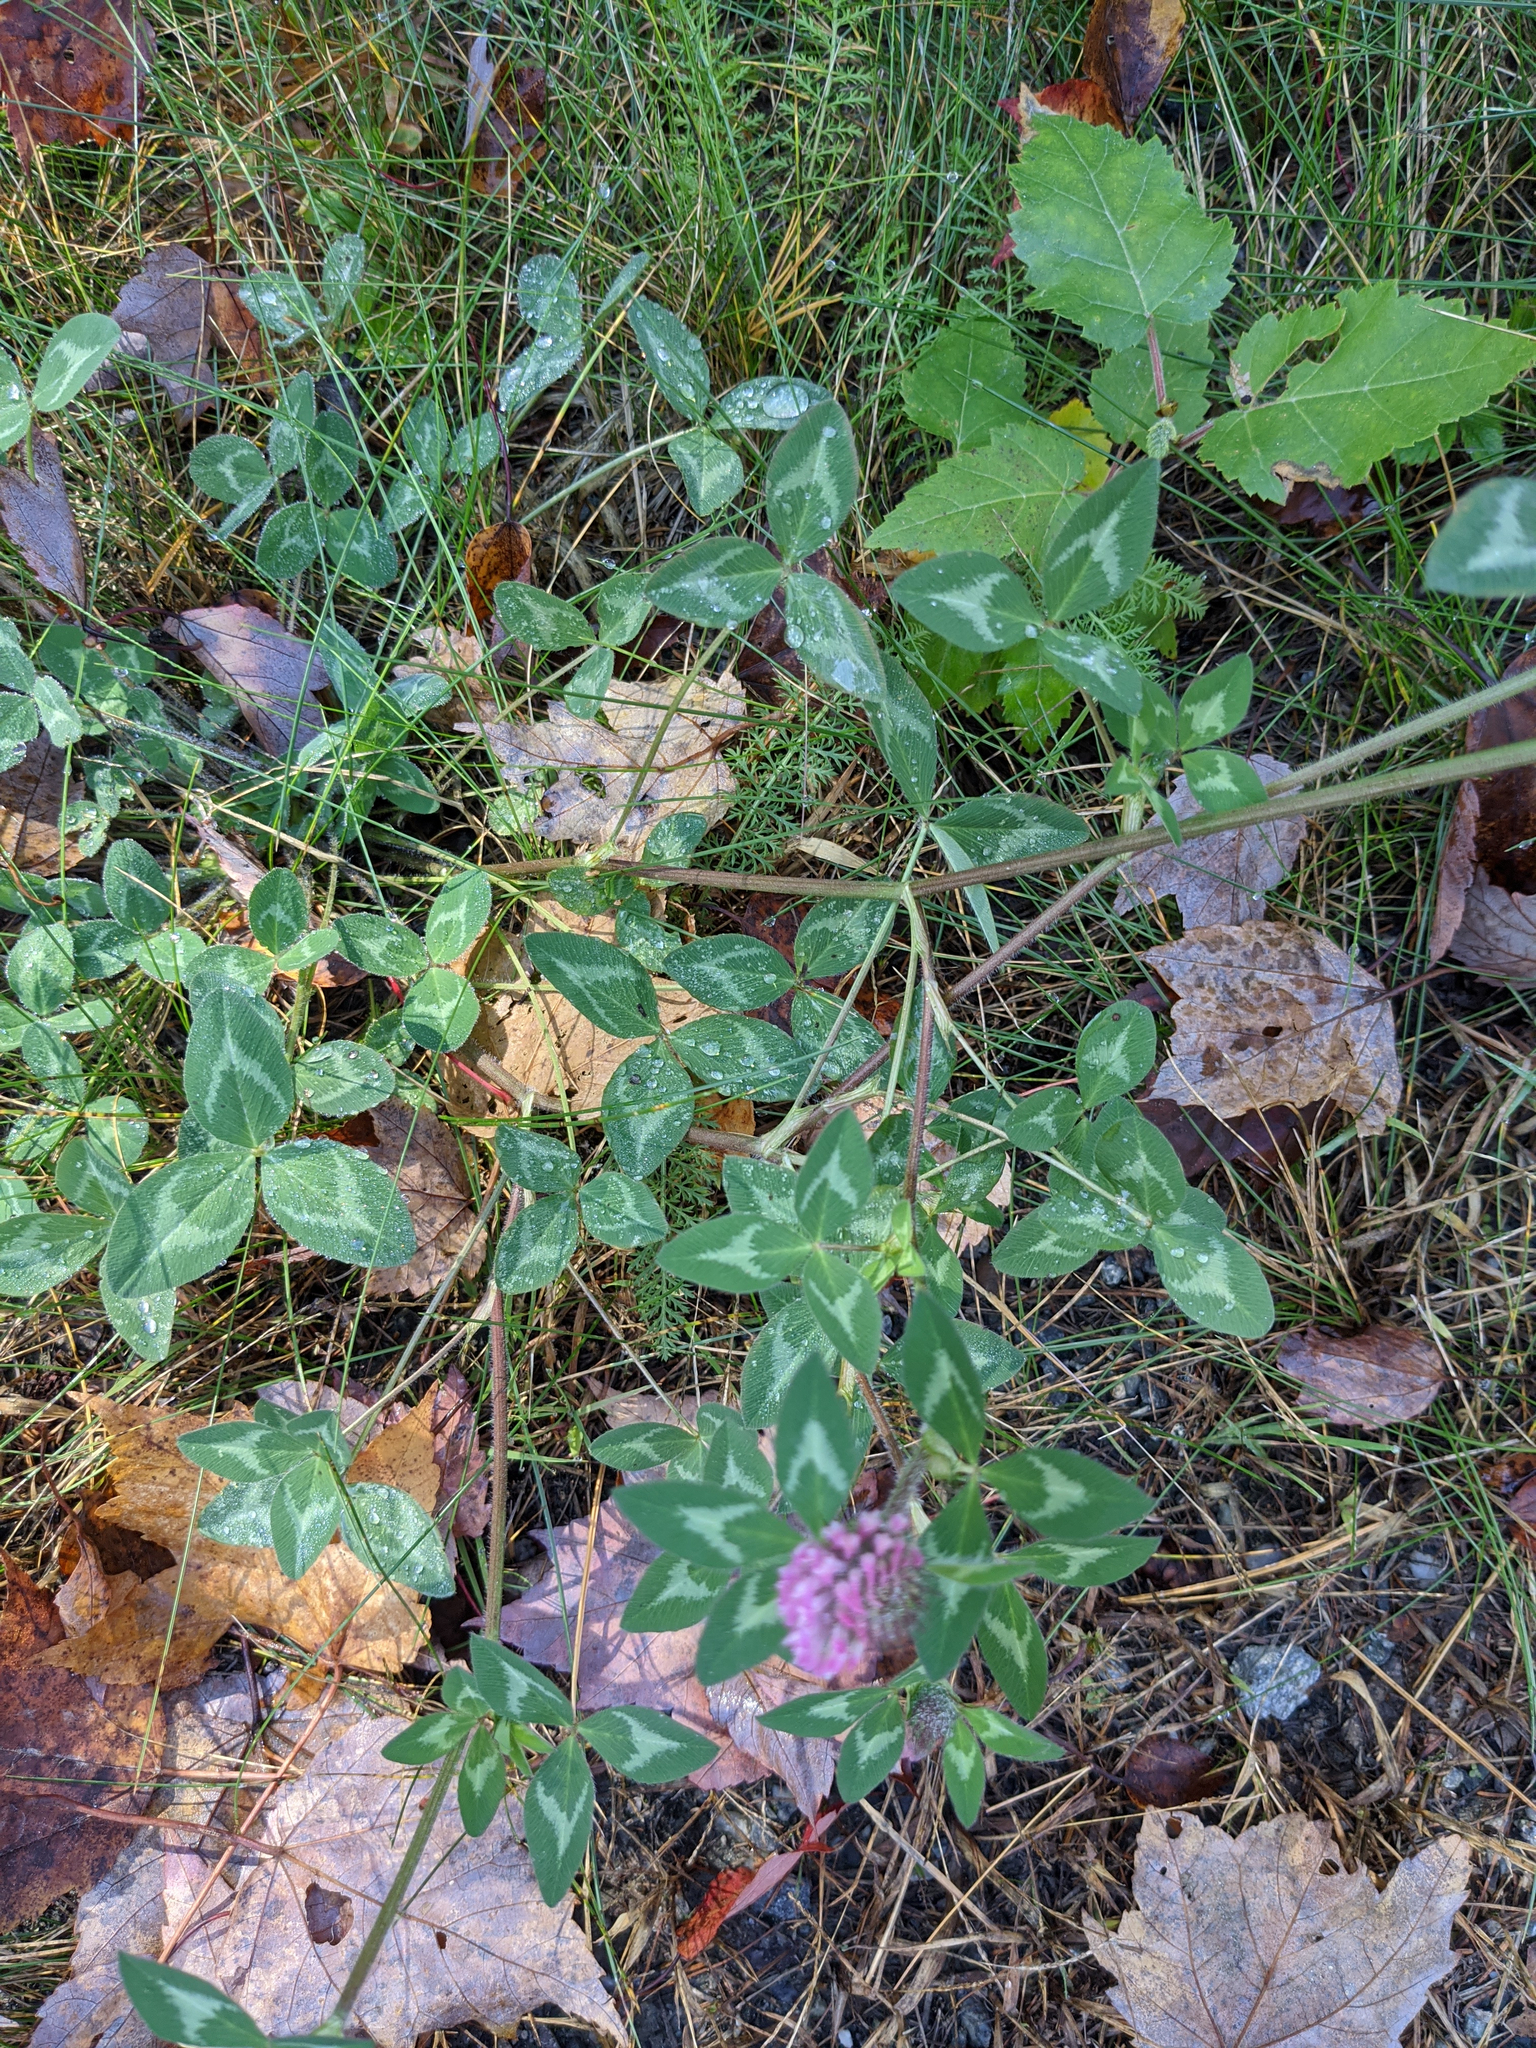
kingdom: Plantae
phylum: Tracheophyta
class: Magnoliopsida
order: Fabales
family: Fabaceae
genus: Trifolium
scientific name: Trifolium pratense
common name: Red clover
